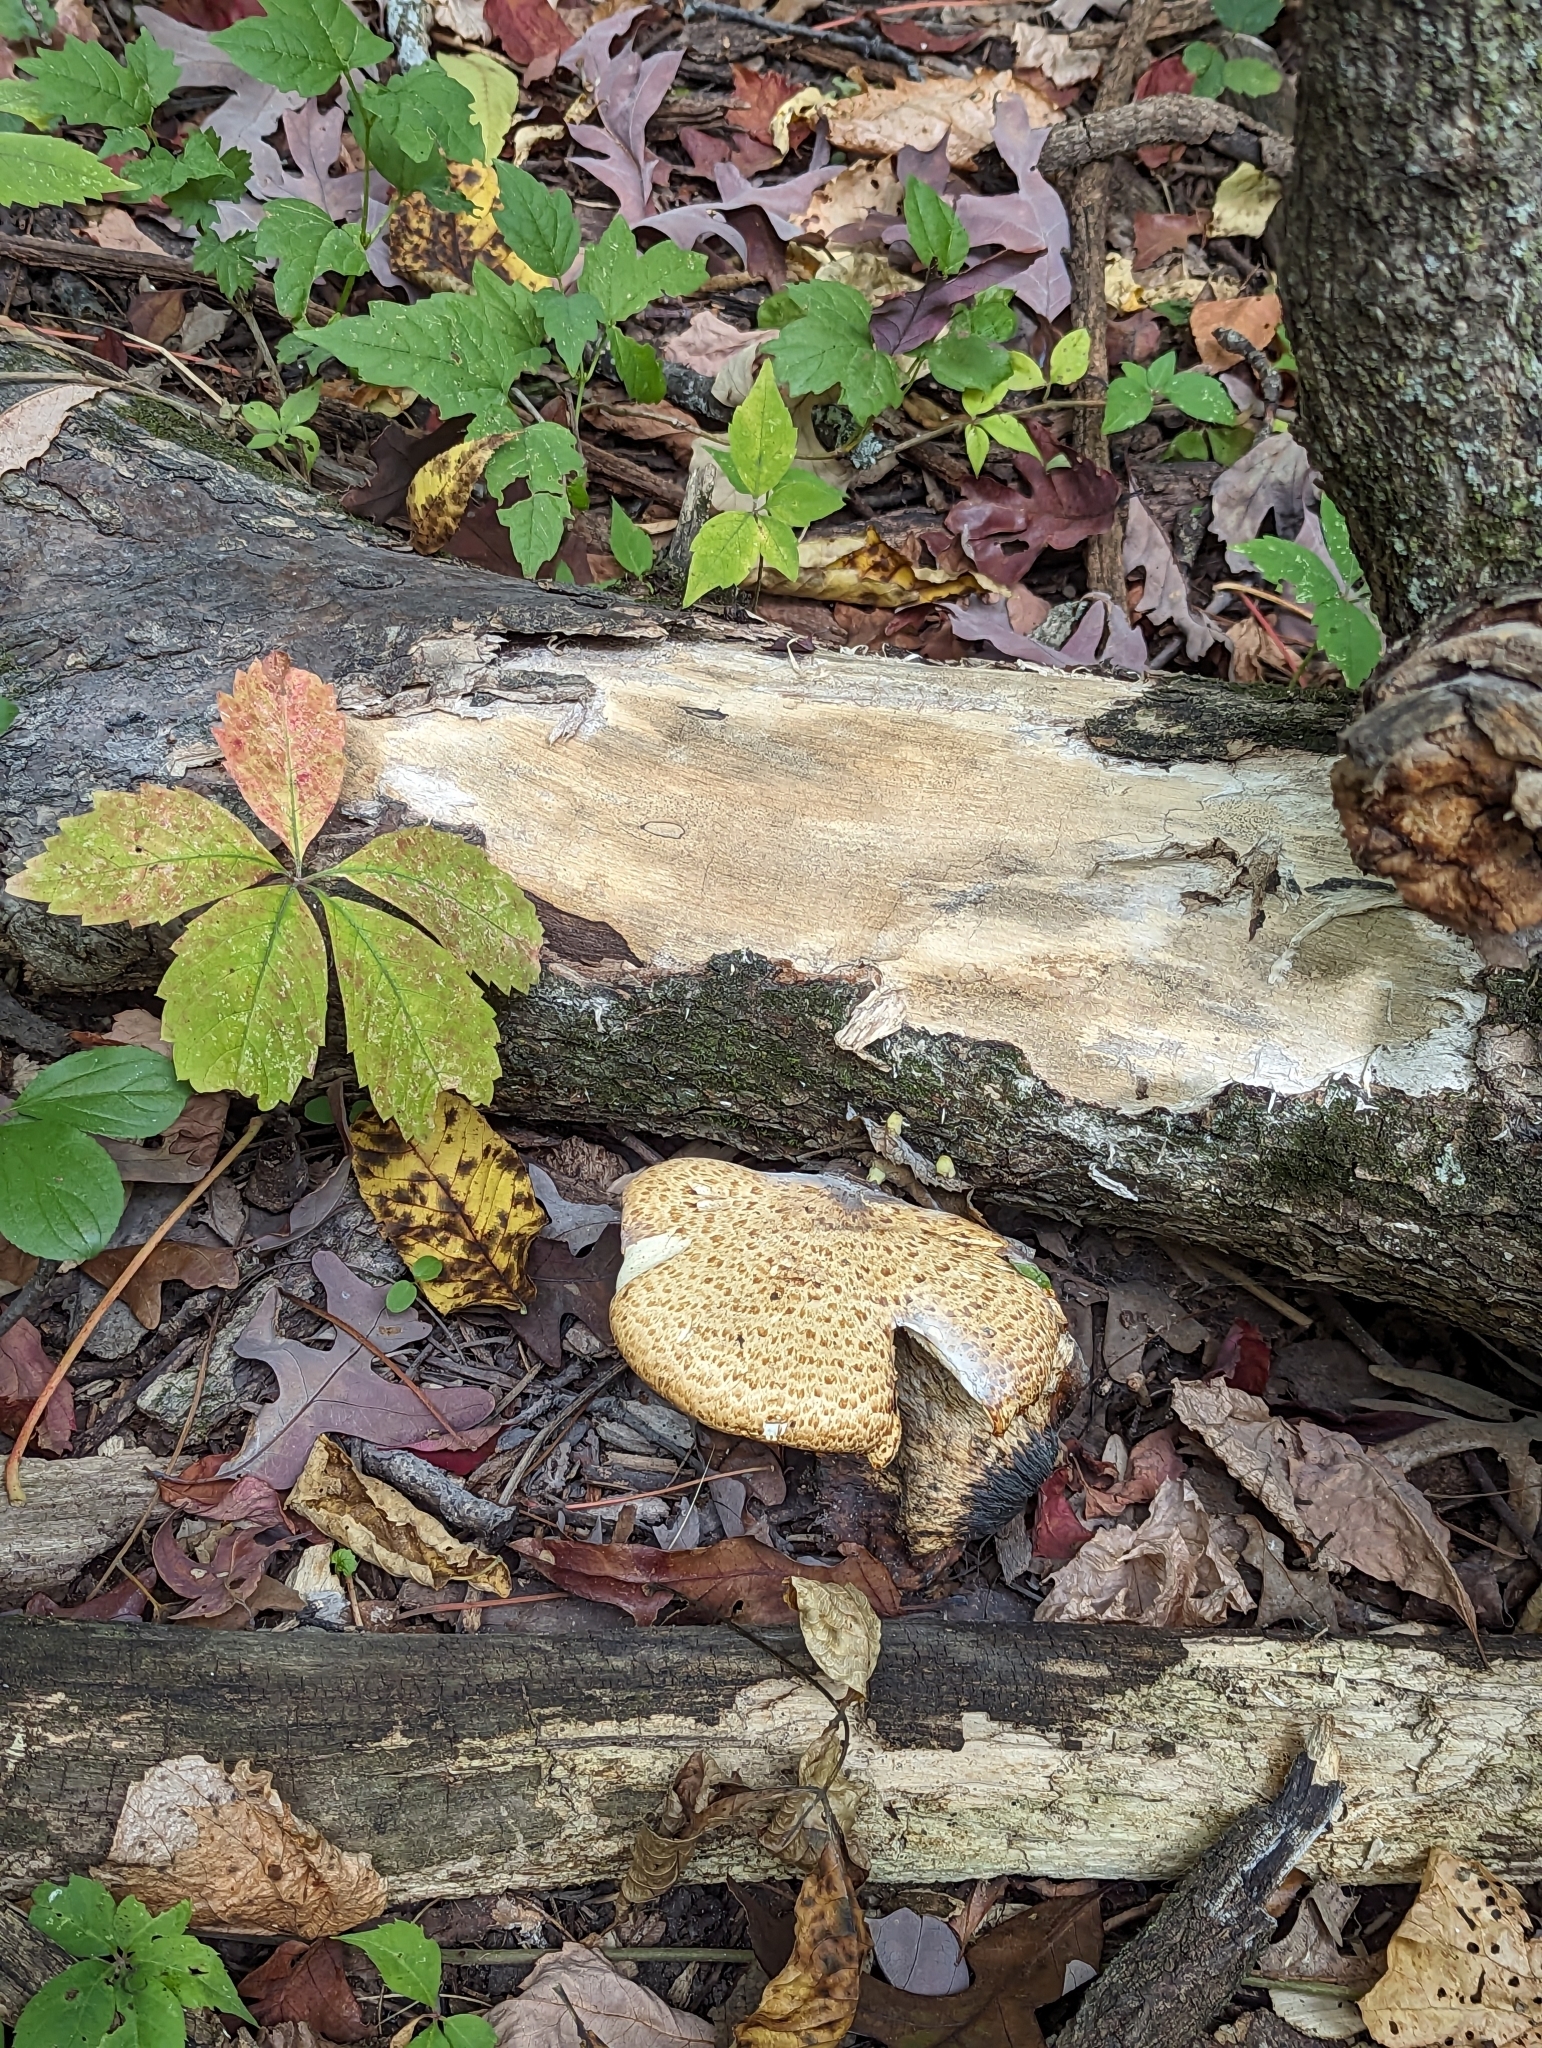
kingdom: Fungi
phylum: Basidiomycota
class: Agaricomycetes
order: Polyporales
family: Polyporaceae
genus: Cerioporus
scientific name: Cerioporus squamosus
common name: Dryad's saddle
